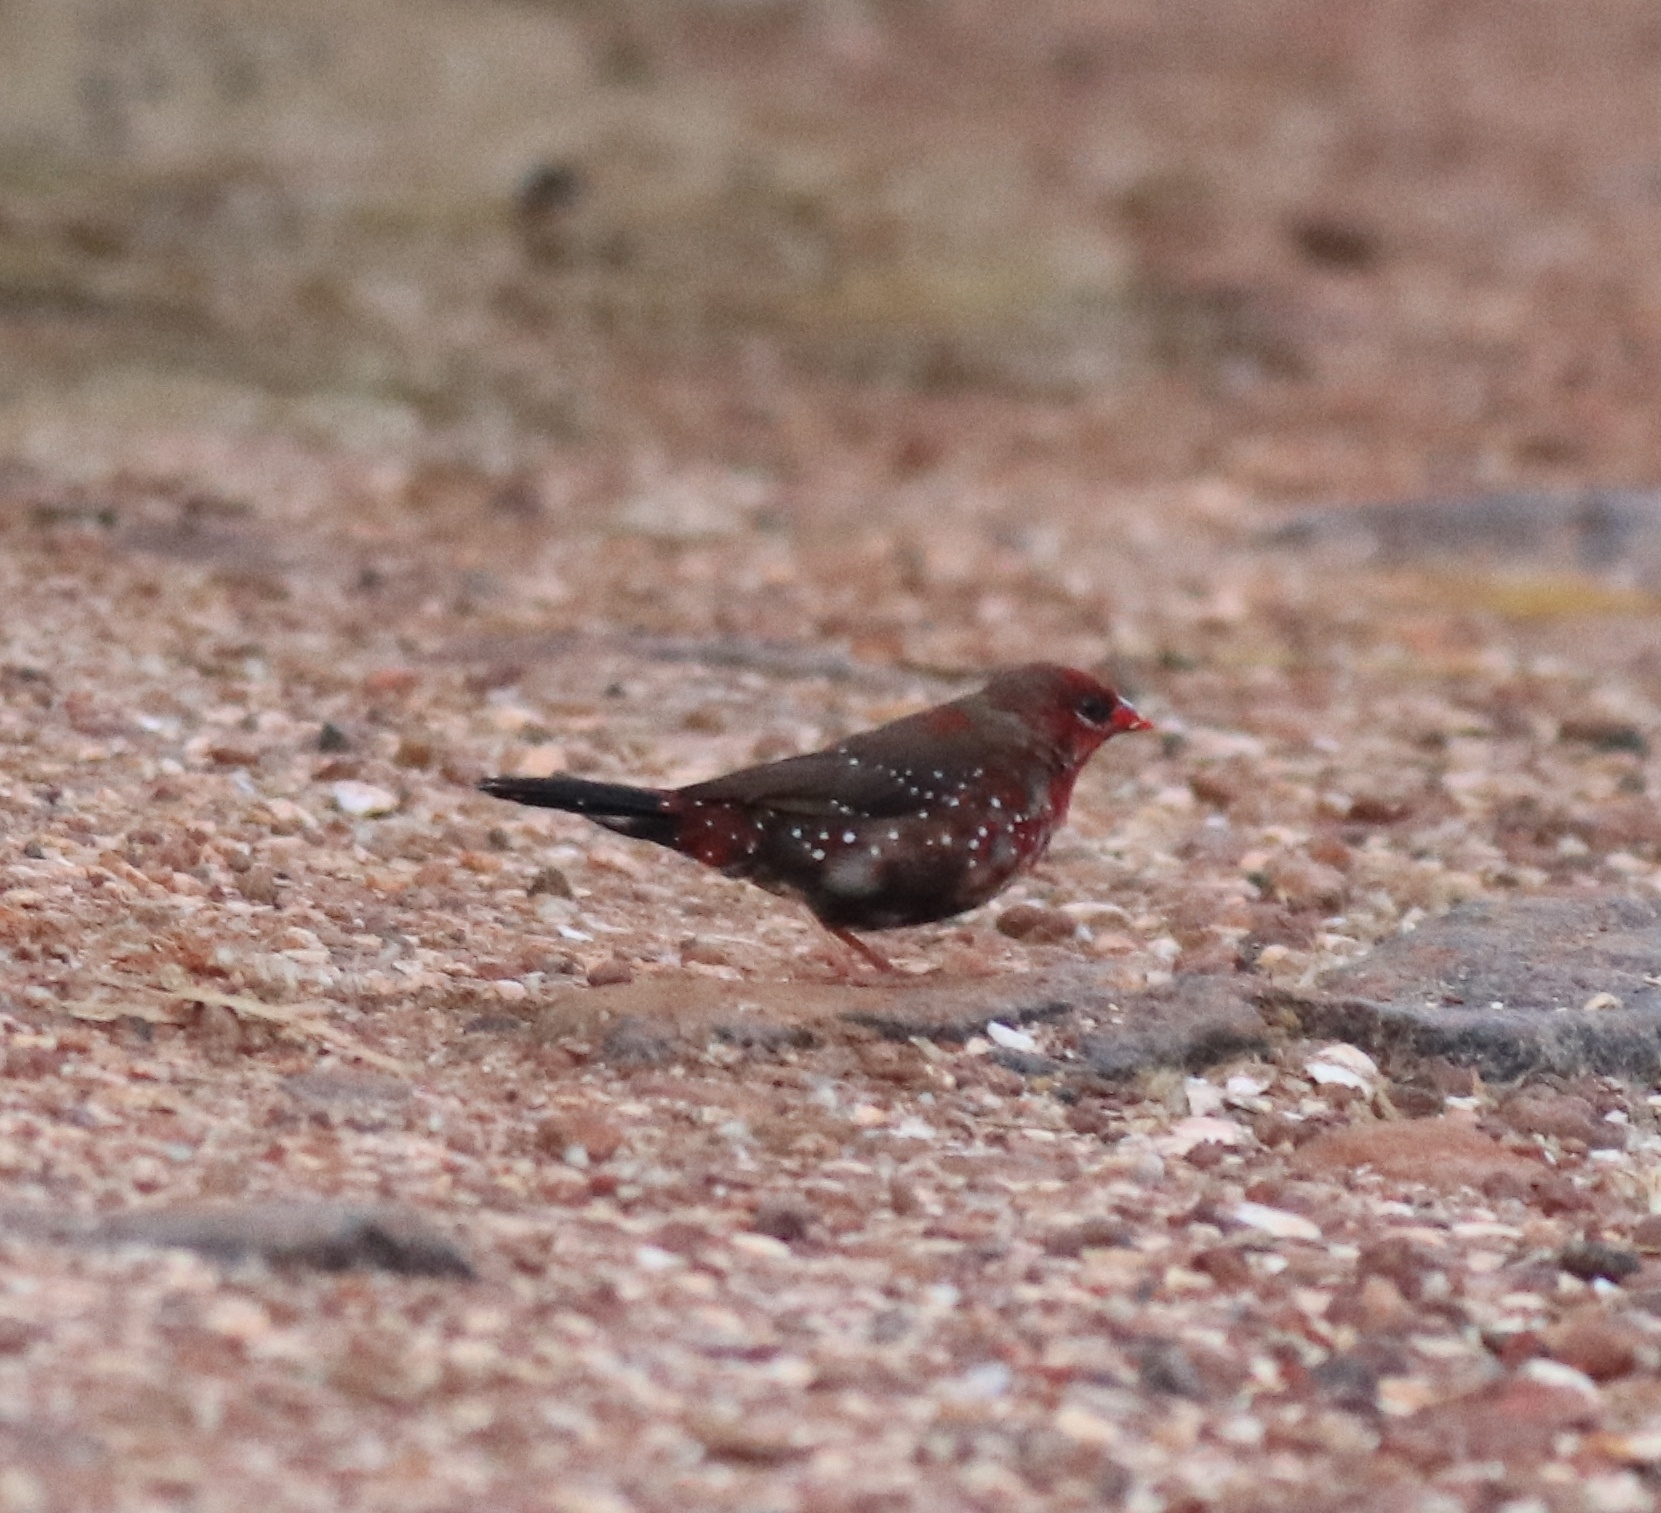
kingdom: Animalia
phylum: Chordata
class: Aves
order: Passeriformes
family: Estrildidae
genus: Amandava
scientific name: Amandava amandava
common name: Red avadavat
